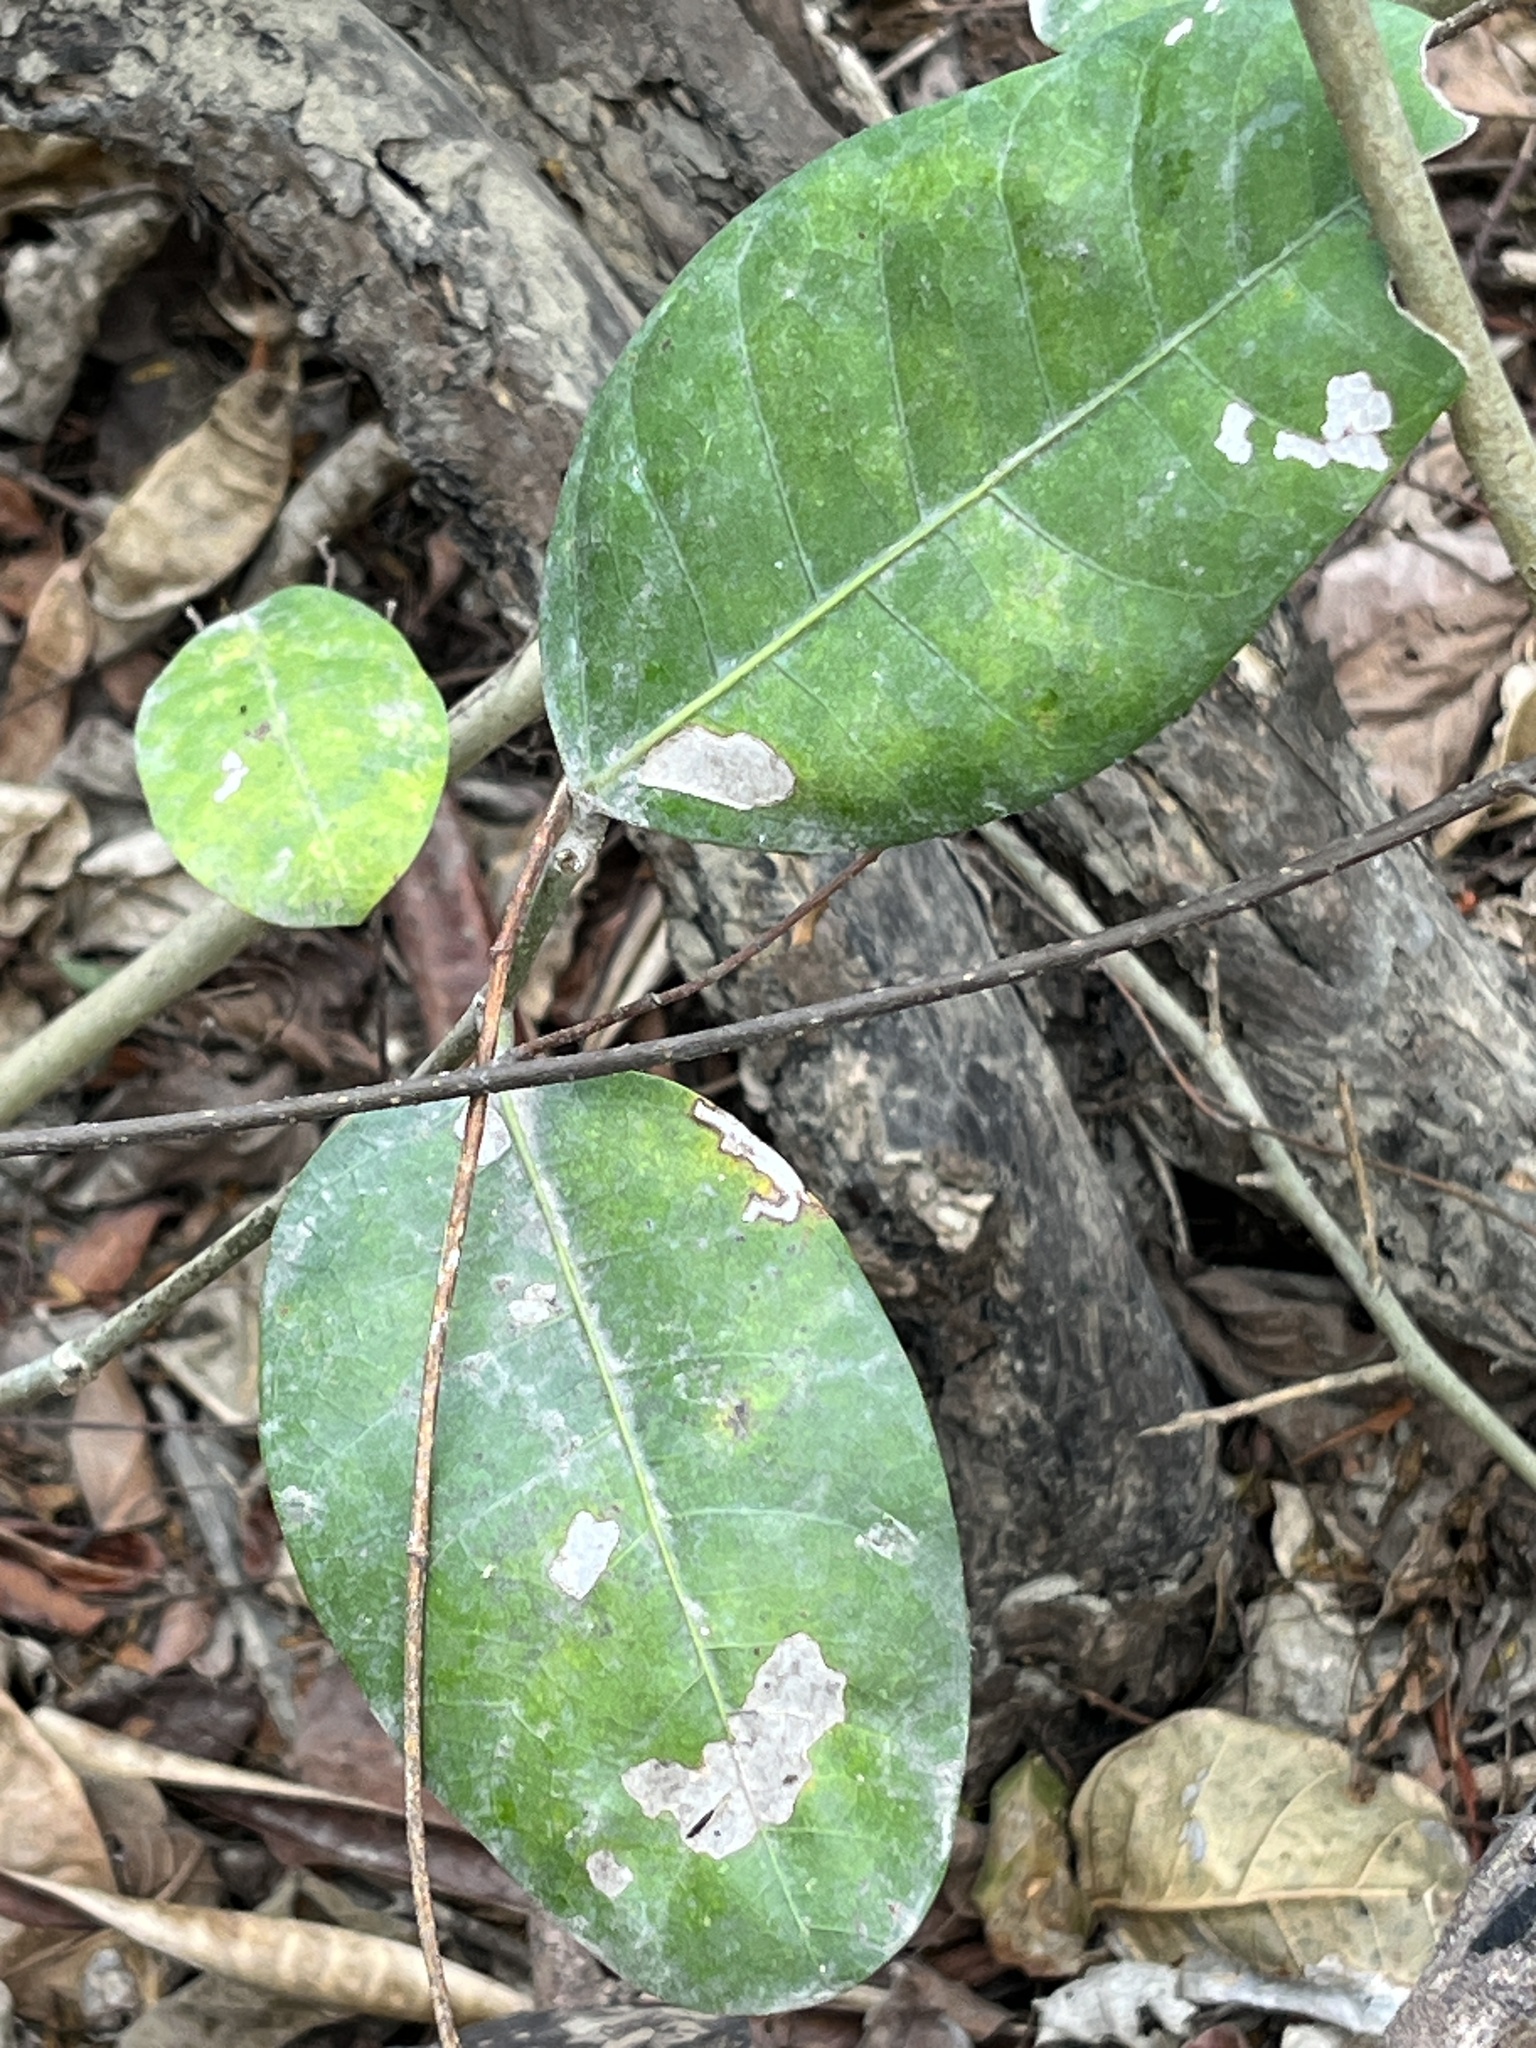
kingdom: Plantae
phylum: Tracheophyta
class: Magnoliopsida
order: Rosales
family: Moraceae
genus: Ficus
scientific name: Ficus tinctoria
